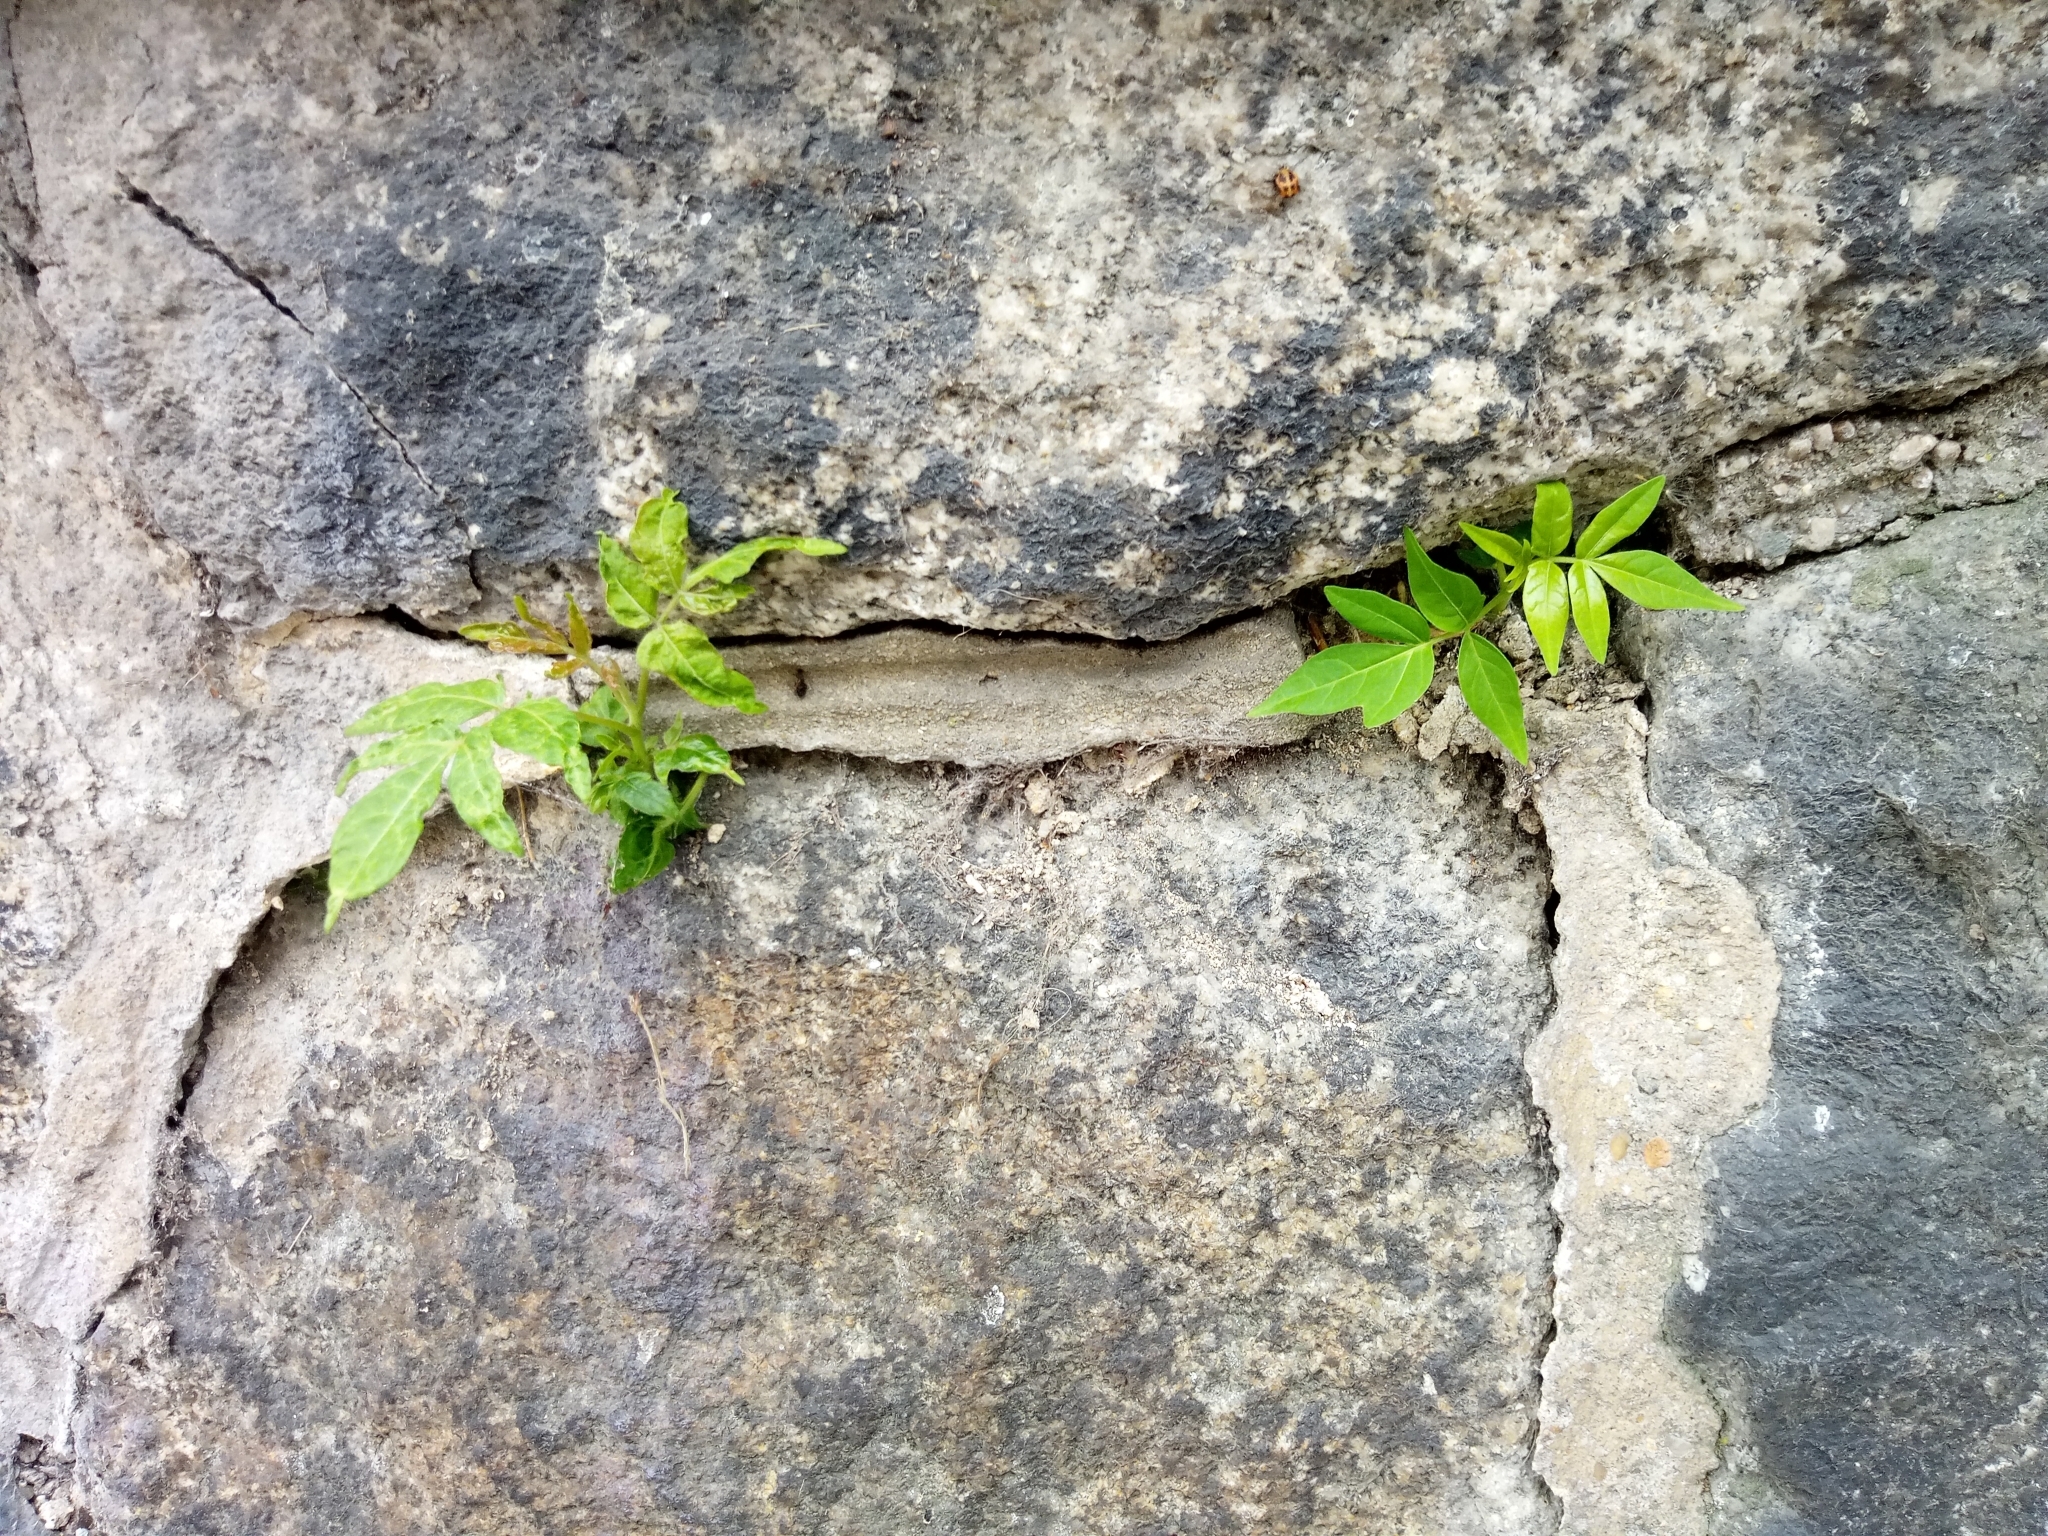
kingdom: Plantae
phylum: Tracheophyta
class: Magnoliopsida
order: Sapindales
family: Simaroubaceae
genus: Ailanthus
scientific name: Ailanthus altissima
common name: Tree-of-heaven
